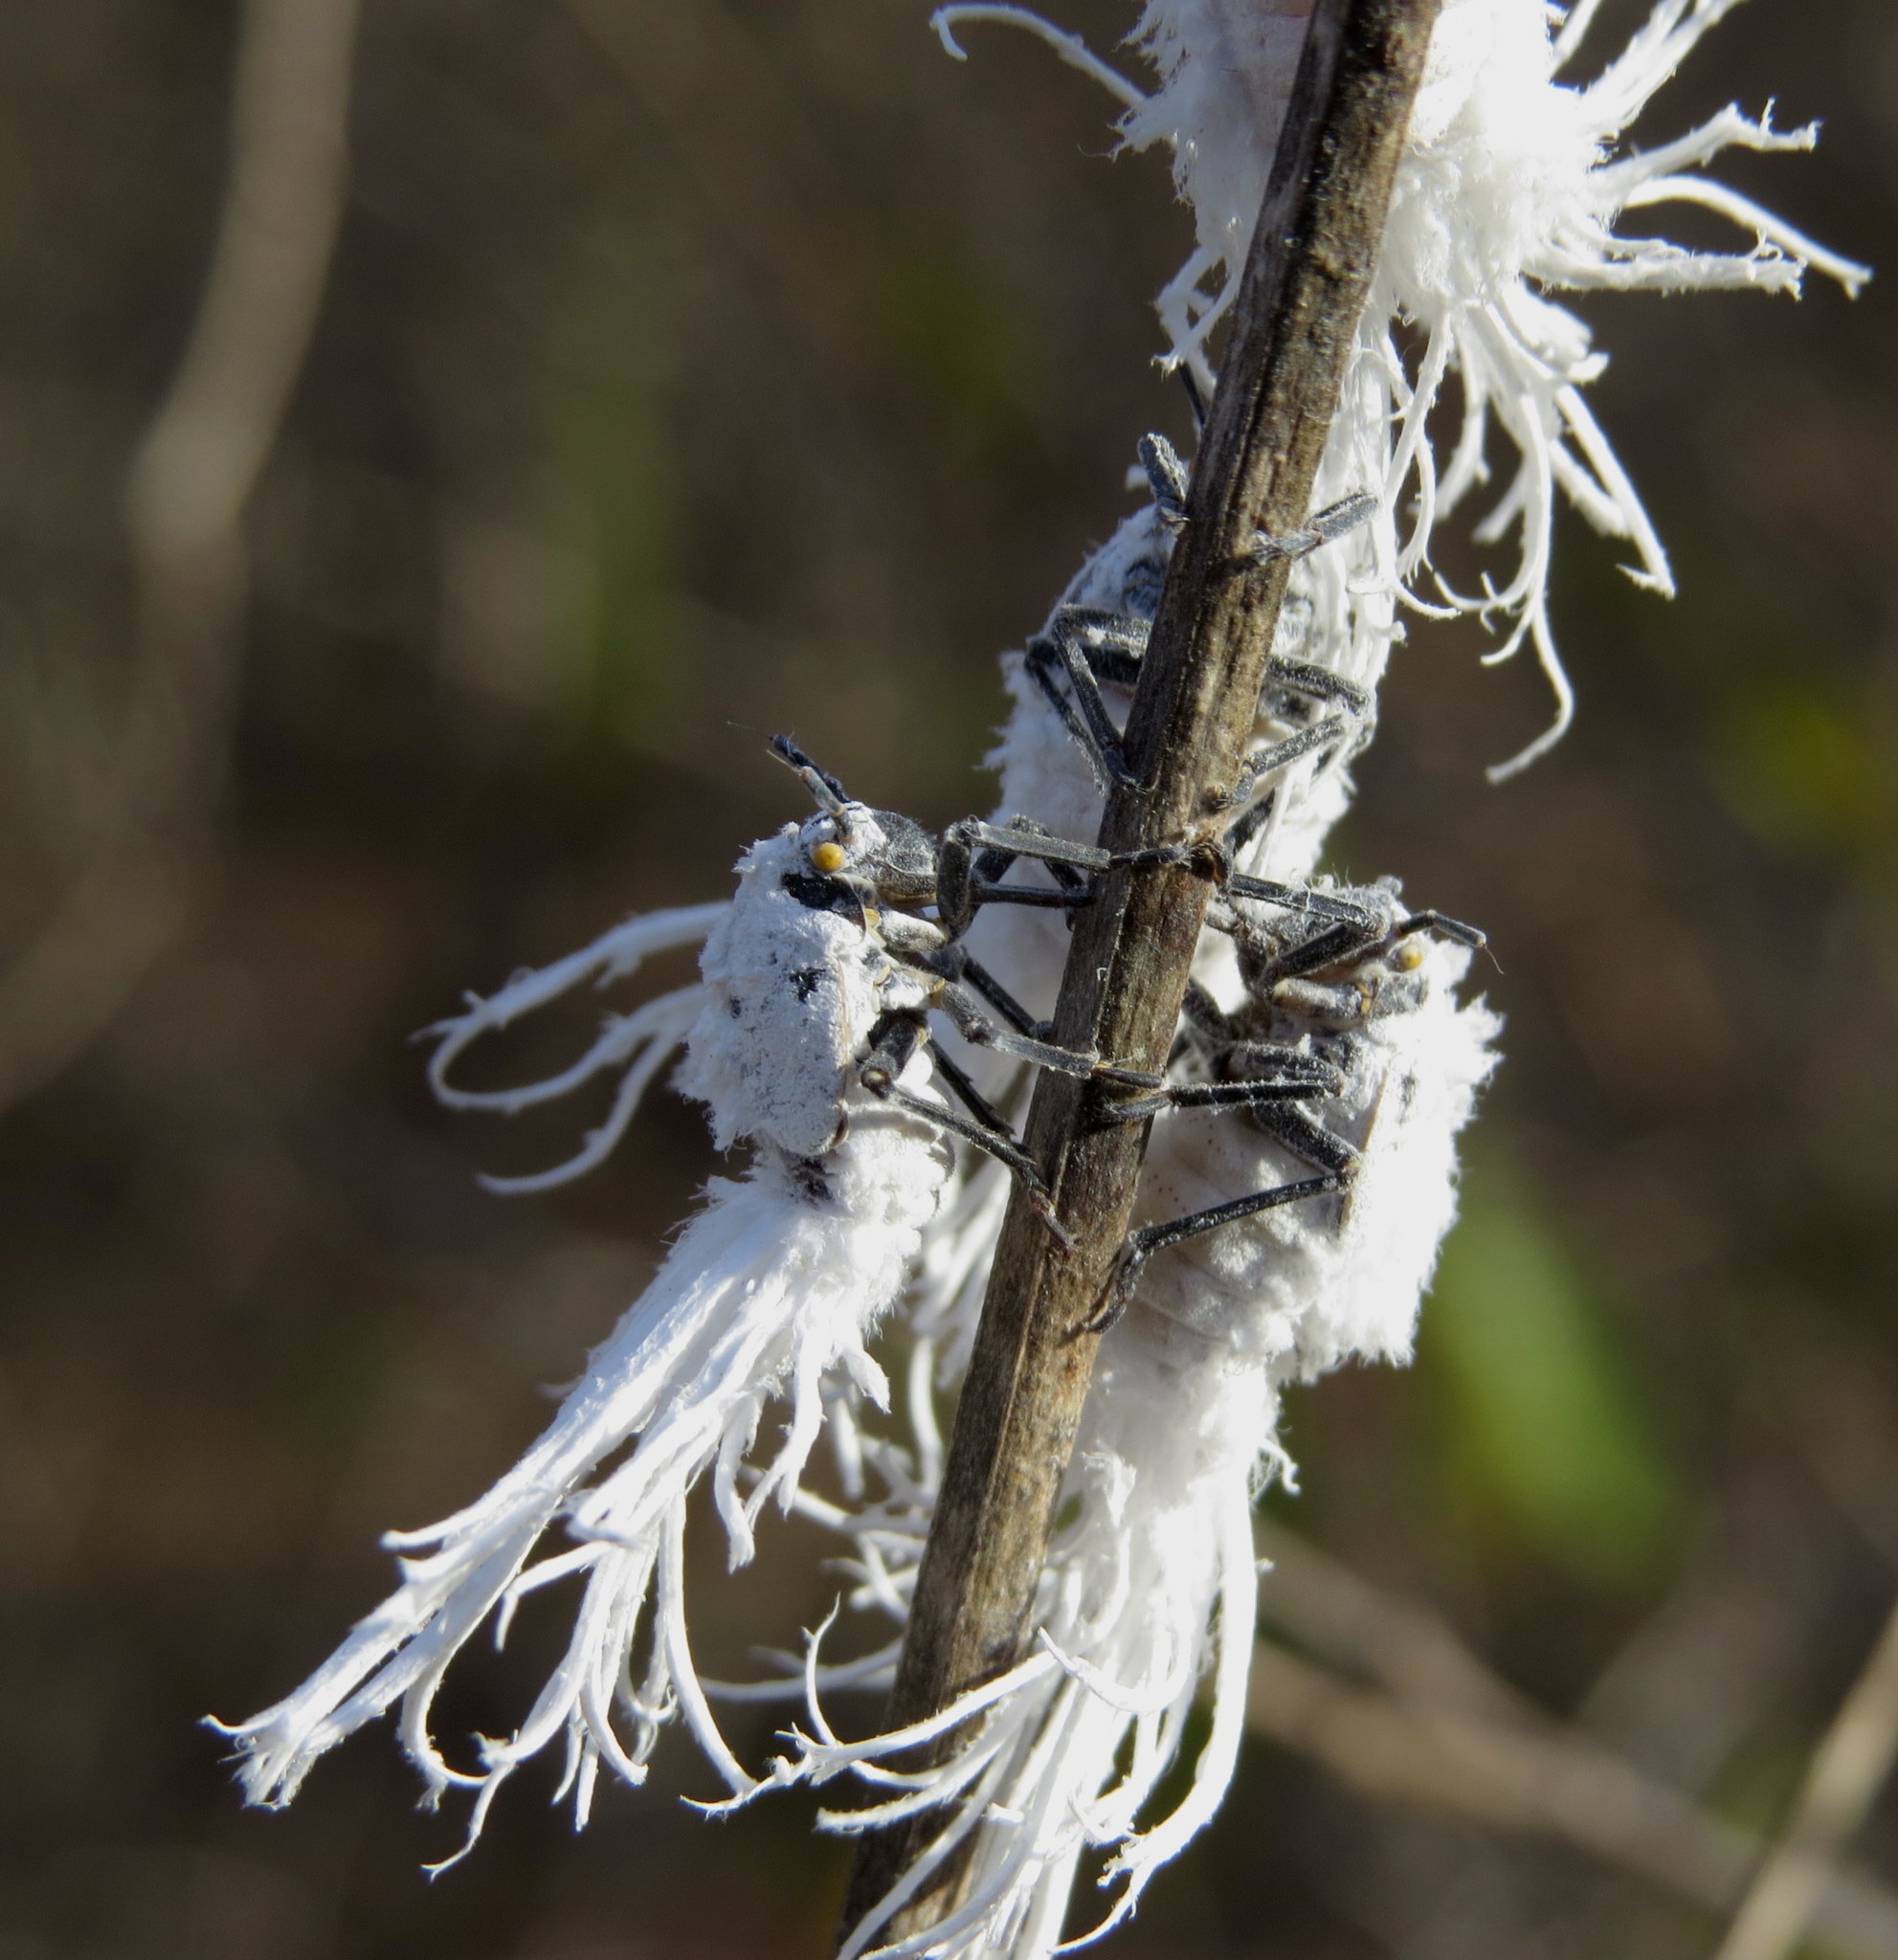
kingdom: Animalia
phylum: Arthropoda
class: Insecta
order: Hemiptera
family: Flatidae
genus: Flatida
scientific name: Flatida rosea
